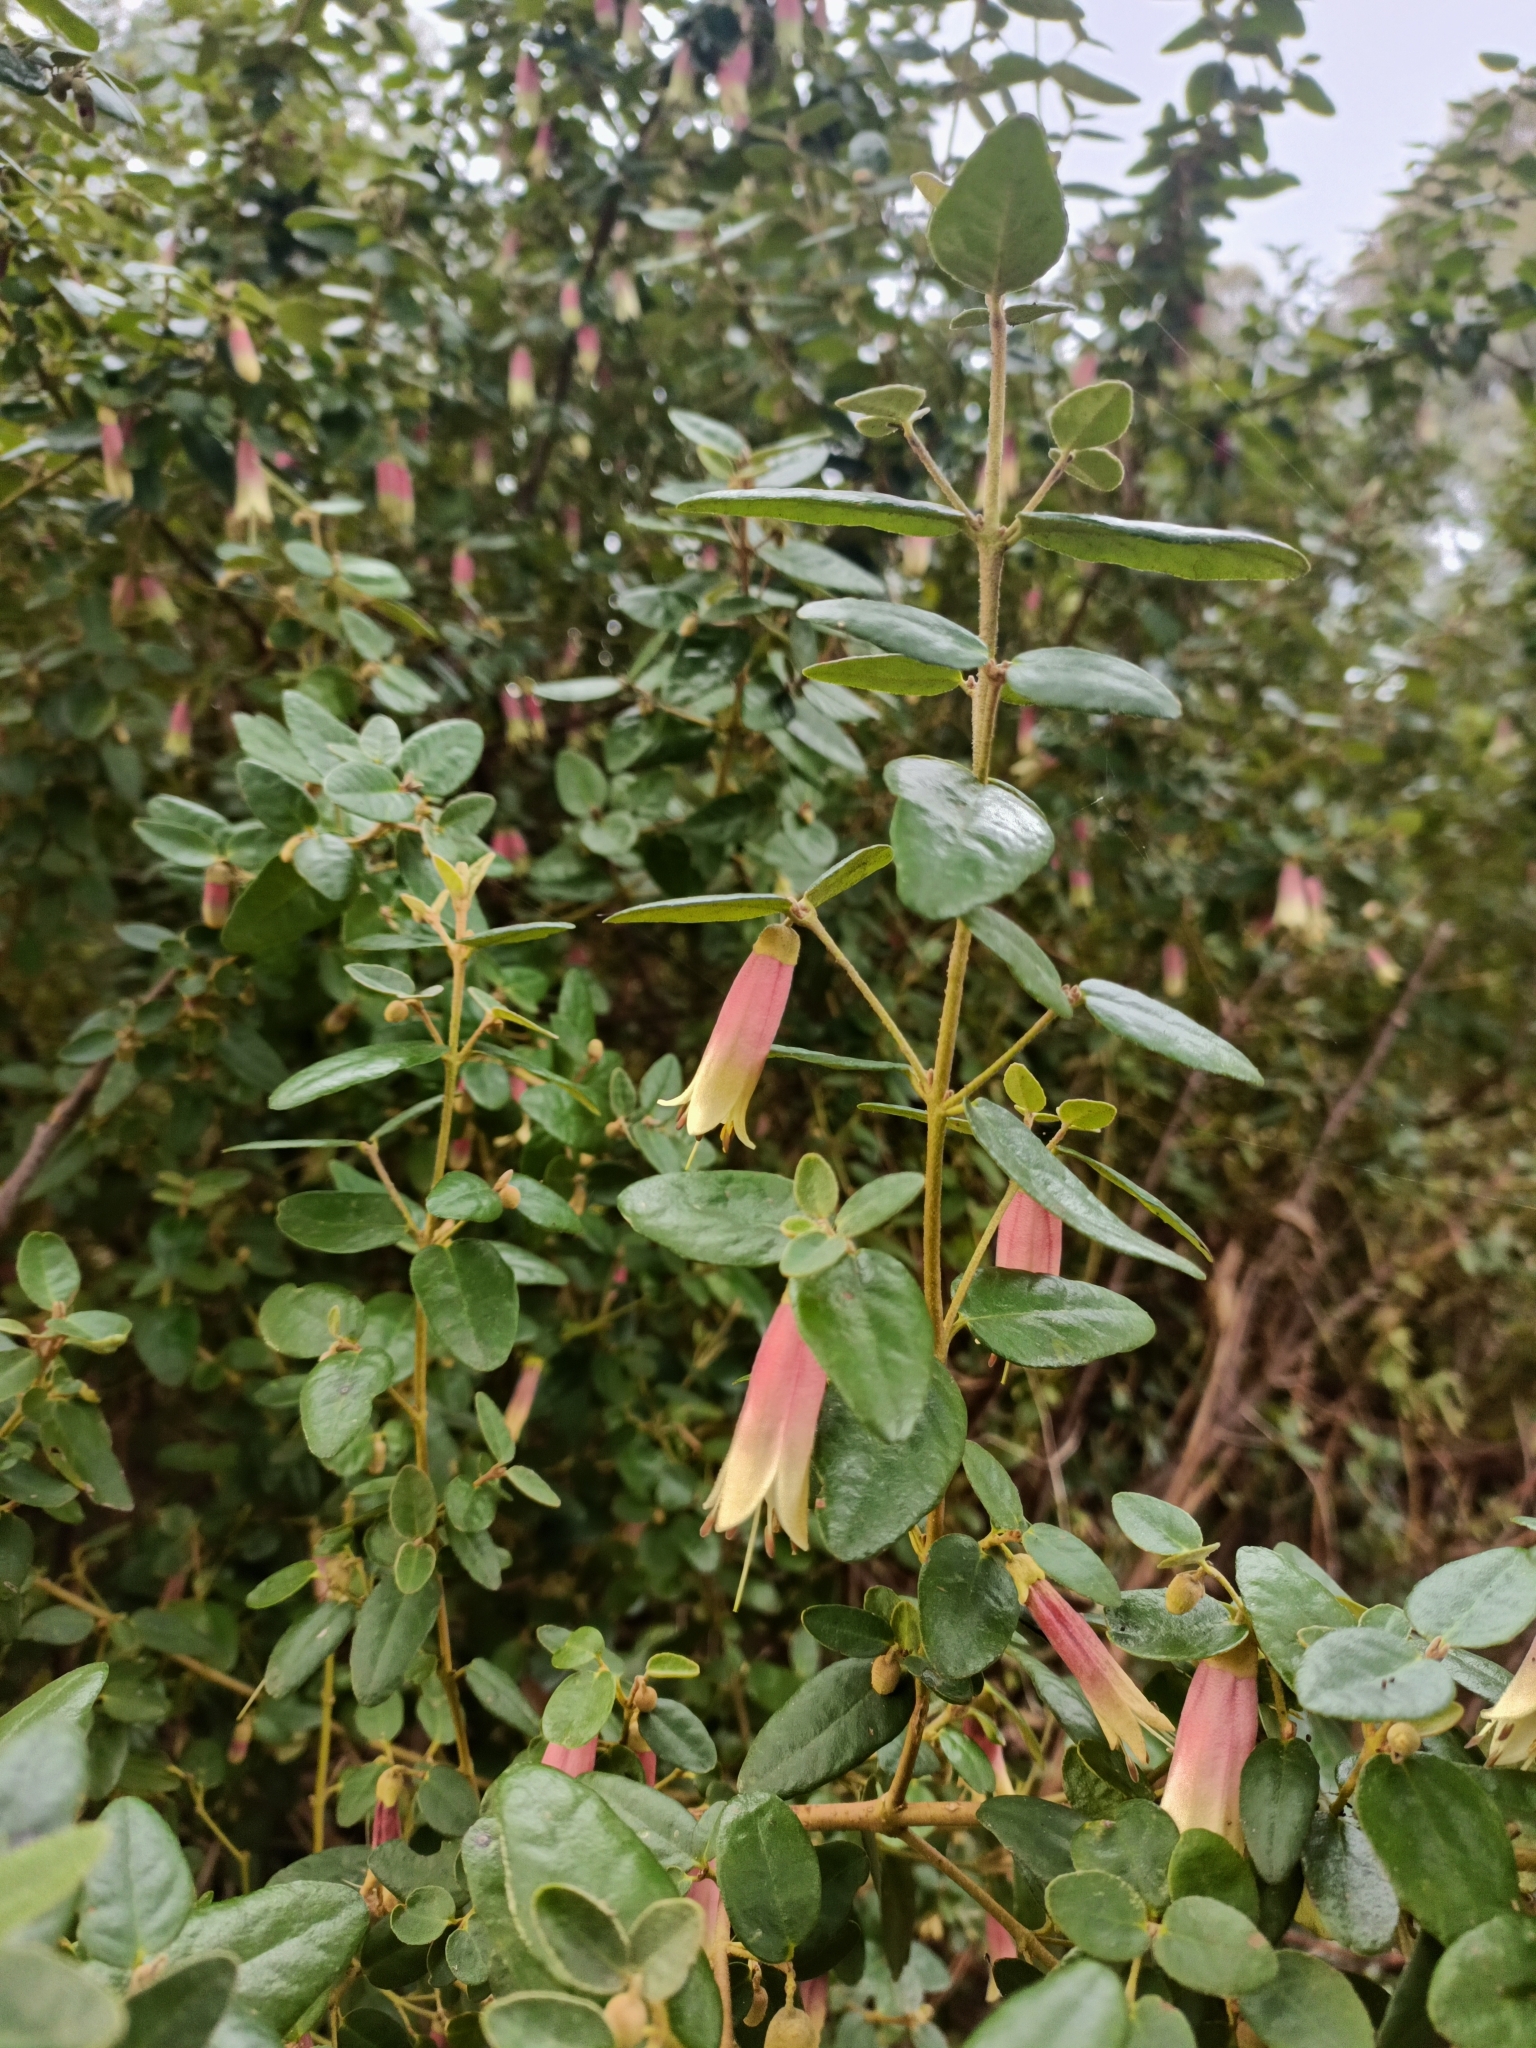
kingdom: Plantae
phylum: Tracheophyta
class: Magnoliopsida
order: Sapindales
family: Rutaceae
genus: Correa
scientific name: Correa reflexa
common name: Common correa
